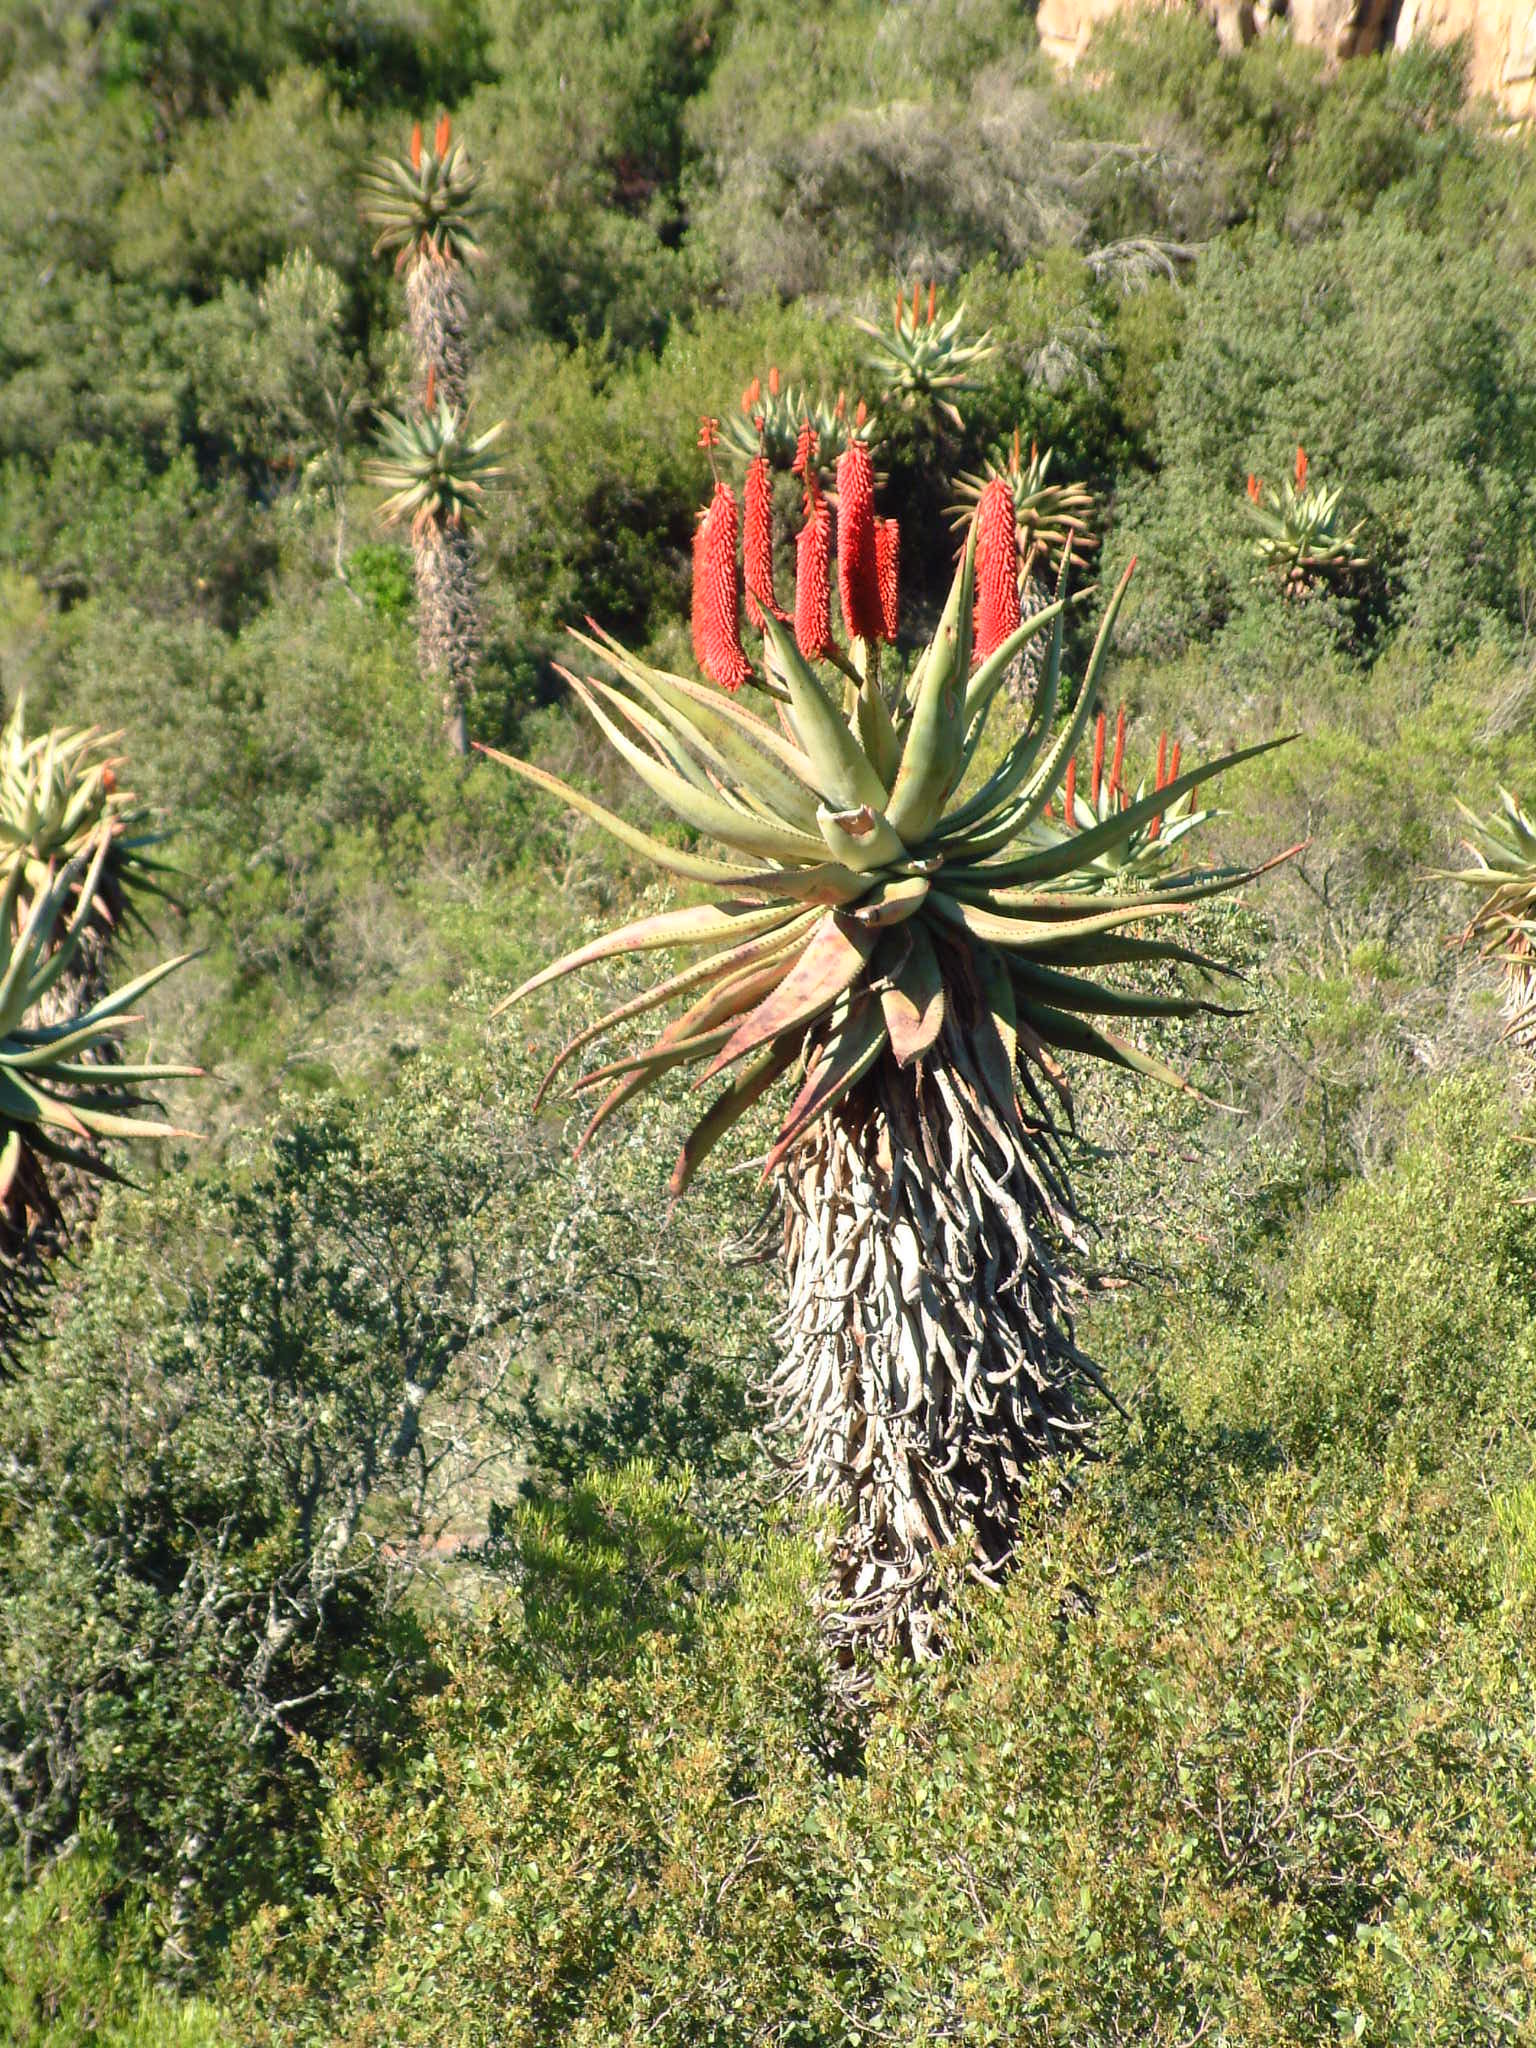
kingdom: Plantae
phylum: Tracheophyta
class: Liliopsida
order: Asparagales
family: Asphodelaceae
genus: Aloe
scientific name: Aloe ferox
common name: Bitter aloe
